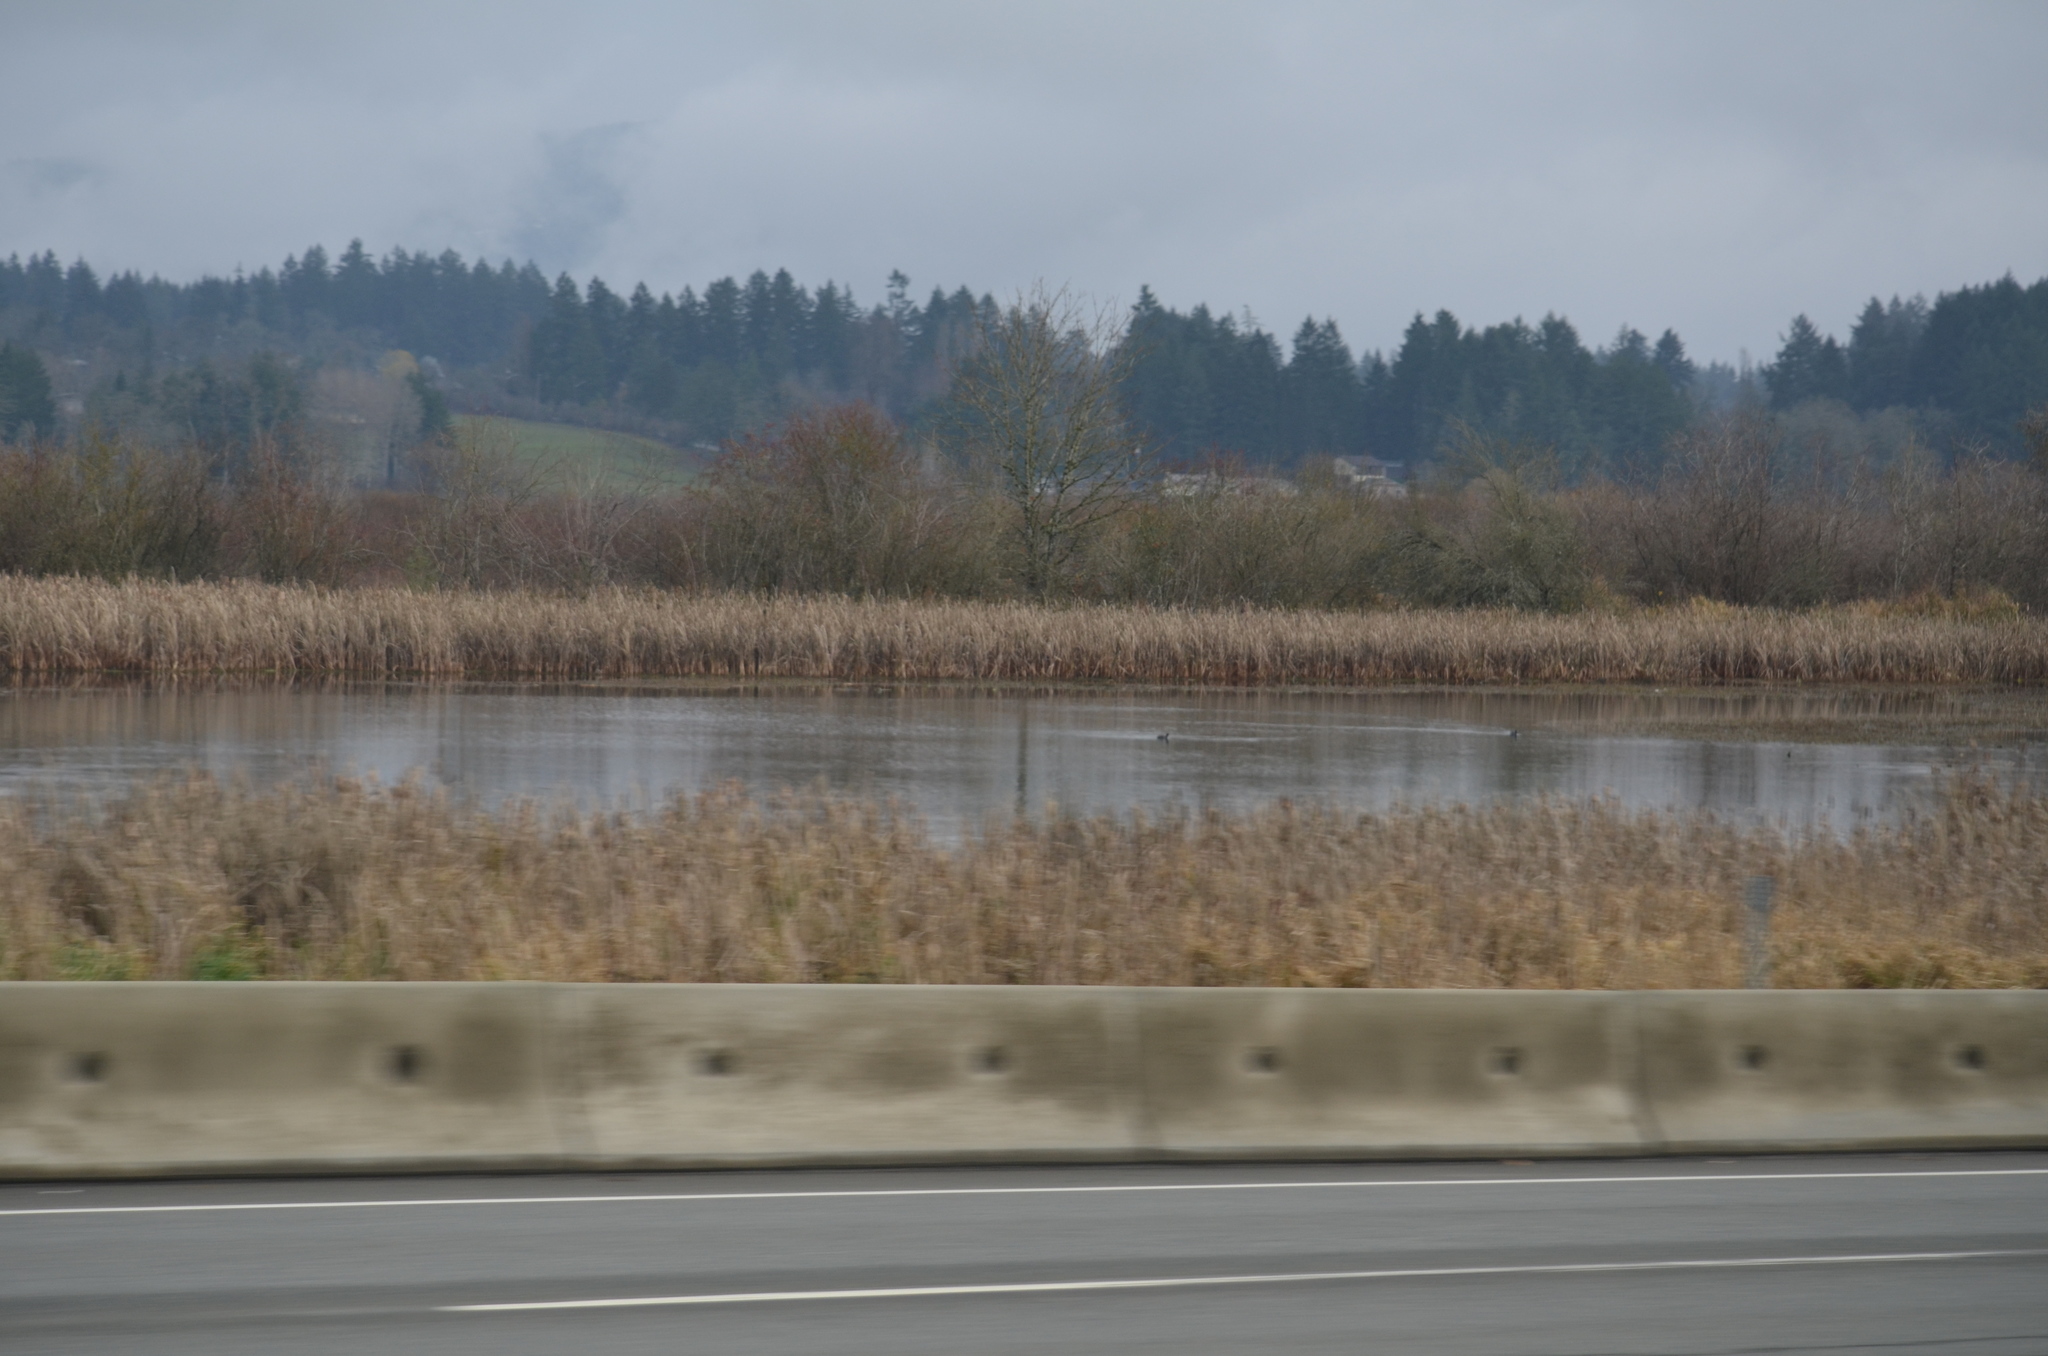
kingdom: Animalia
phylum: Chordata
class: Aves
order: Gruiformes
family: Rallidae
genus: Fulica
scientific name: Fulica americana
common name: American coot
